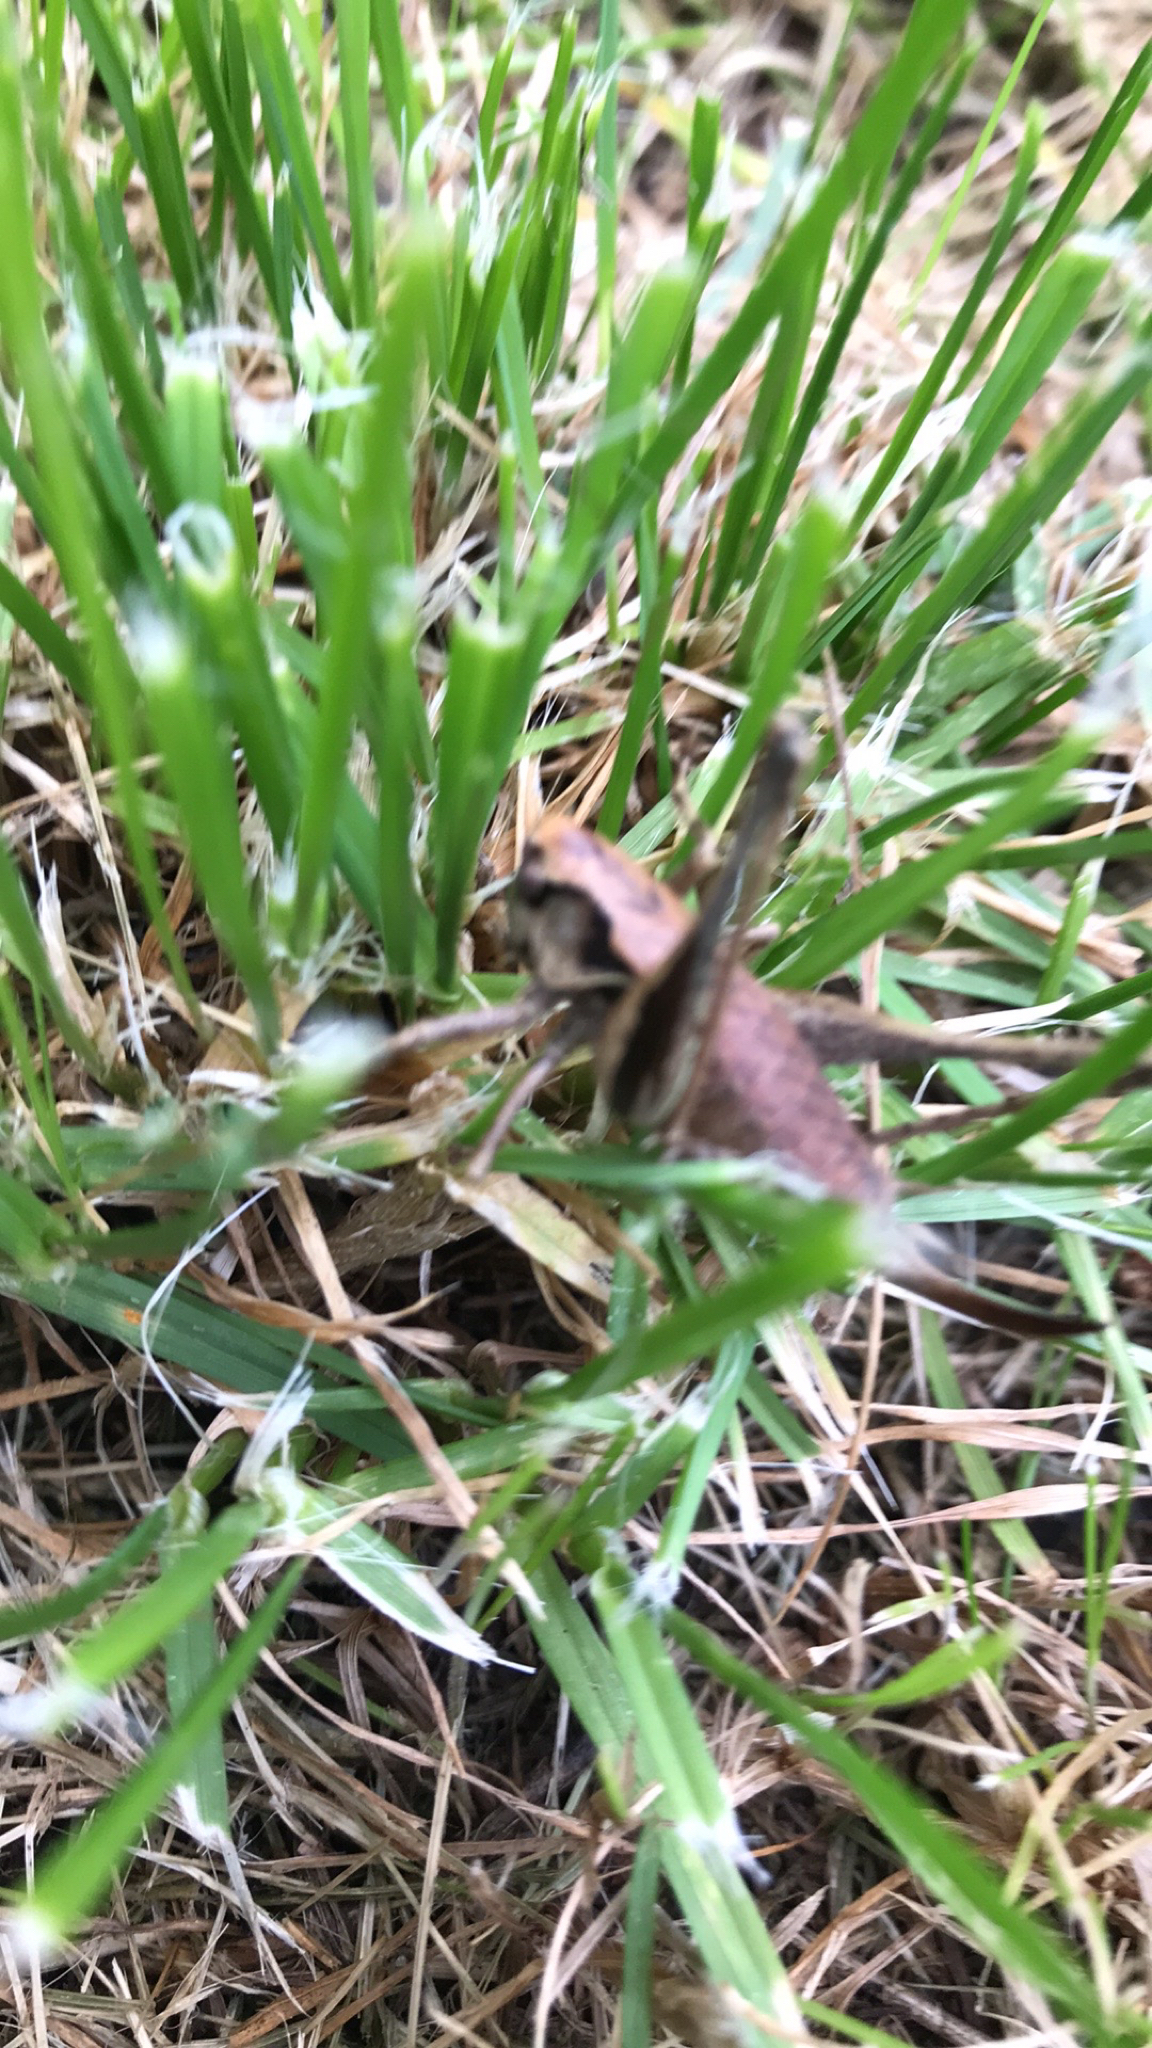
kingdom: Animalia
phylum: Arthropoda
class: Insecta
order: Orthoptera
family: Tettigoniidae
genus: Pholidoptera
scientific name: Pholidoptera griseoaptera
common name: Dark bush-cricket
